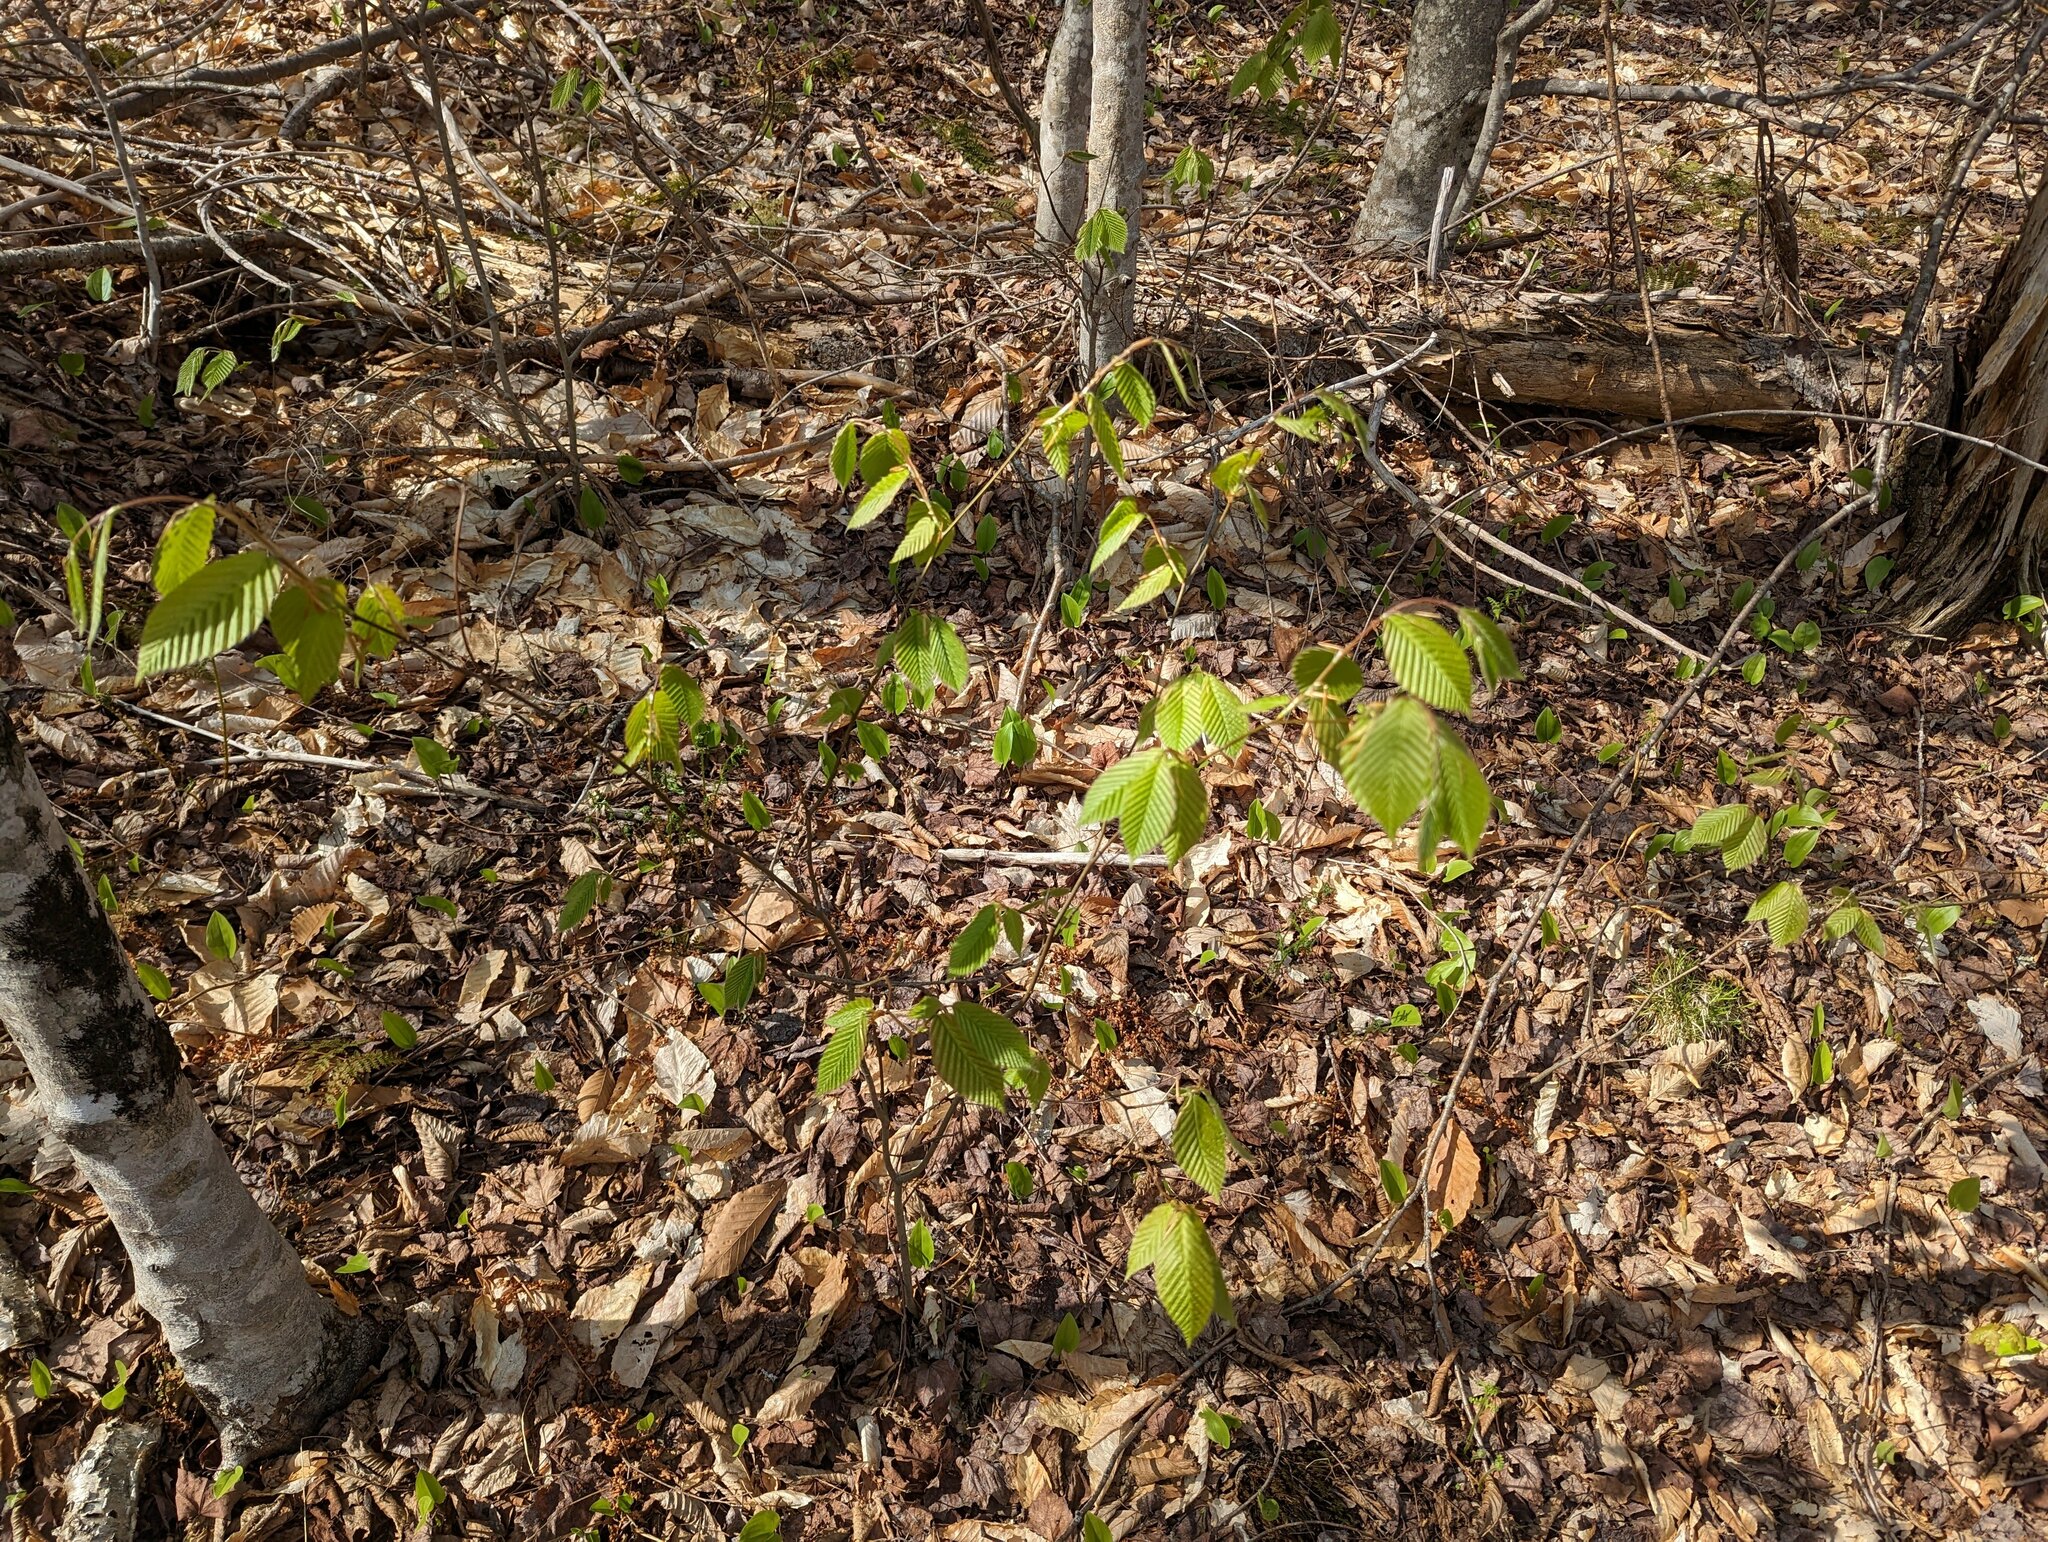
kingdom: Plantae
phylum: Tracheophyta
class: Magnoliopsida
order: Fagales
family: Fagaceae
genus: Fagus
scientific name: Fagus grandifolia
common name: American beech
